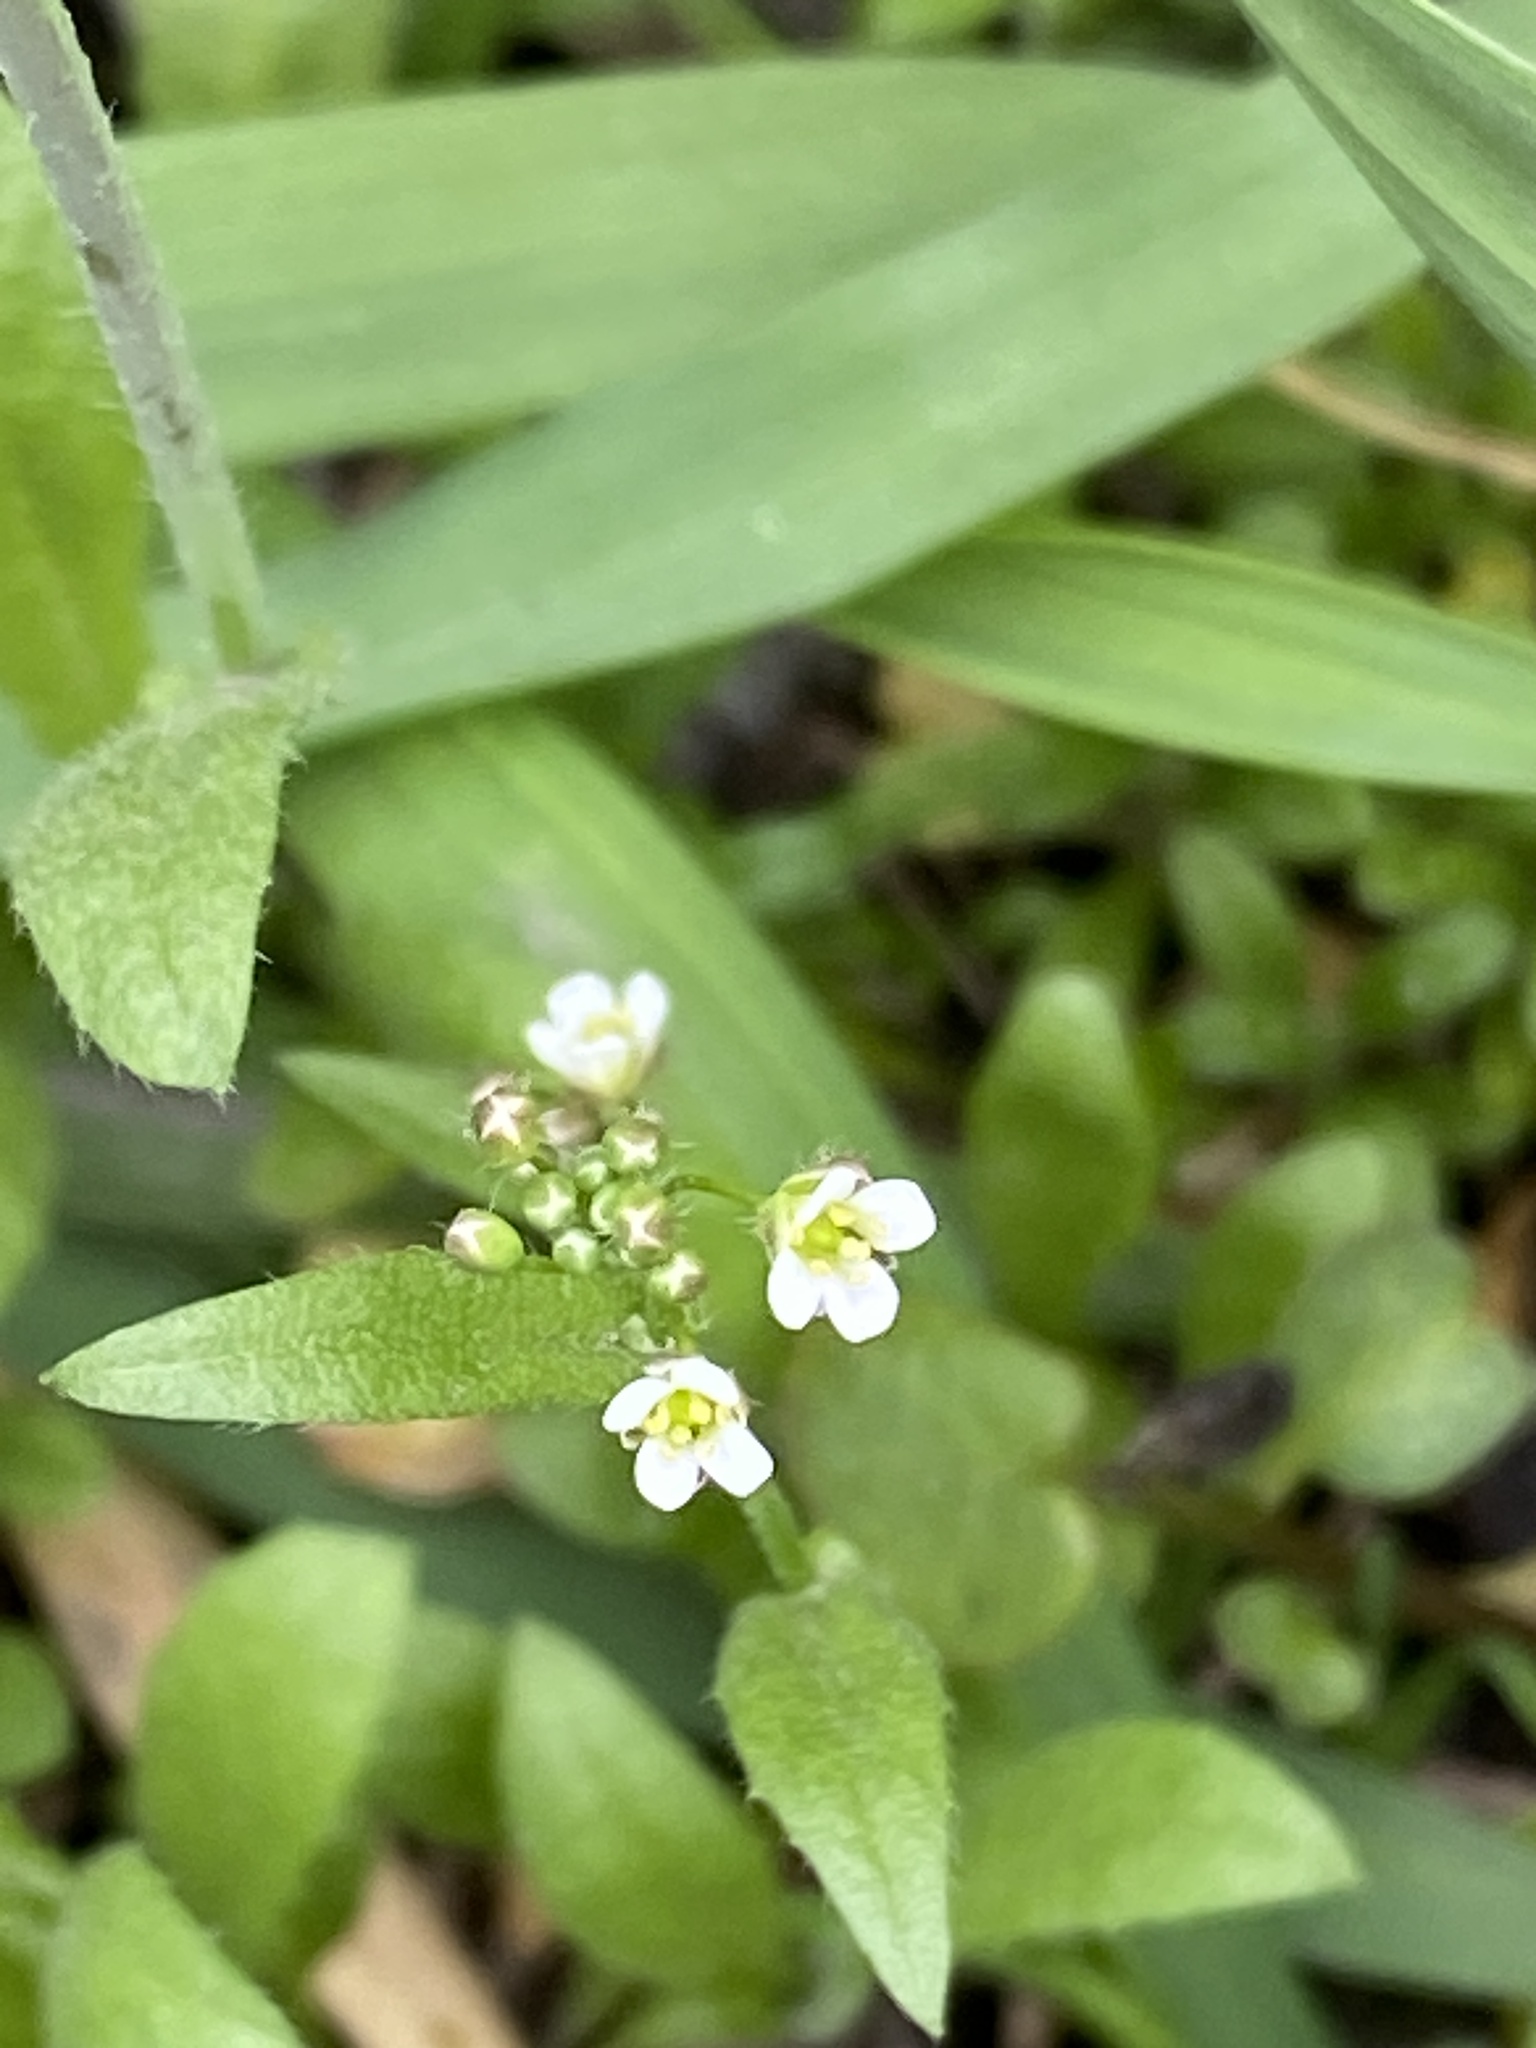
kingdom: Plantae
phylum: Tracheophyta
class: Magnoliopsida
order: Brassicales
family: Brassicaceae
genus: Capsella
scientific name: Capsella bursa-pastoris
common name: Shepherd's purse
